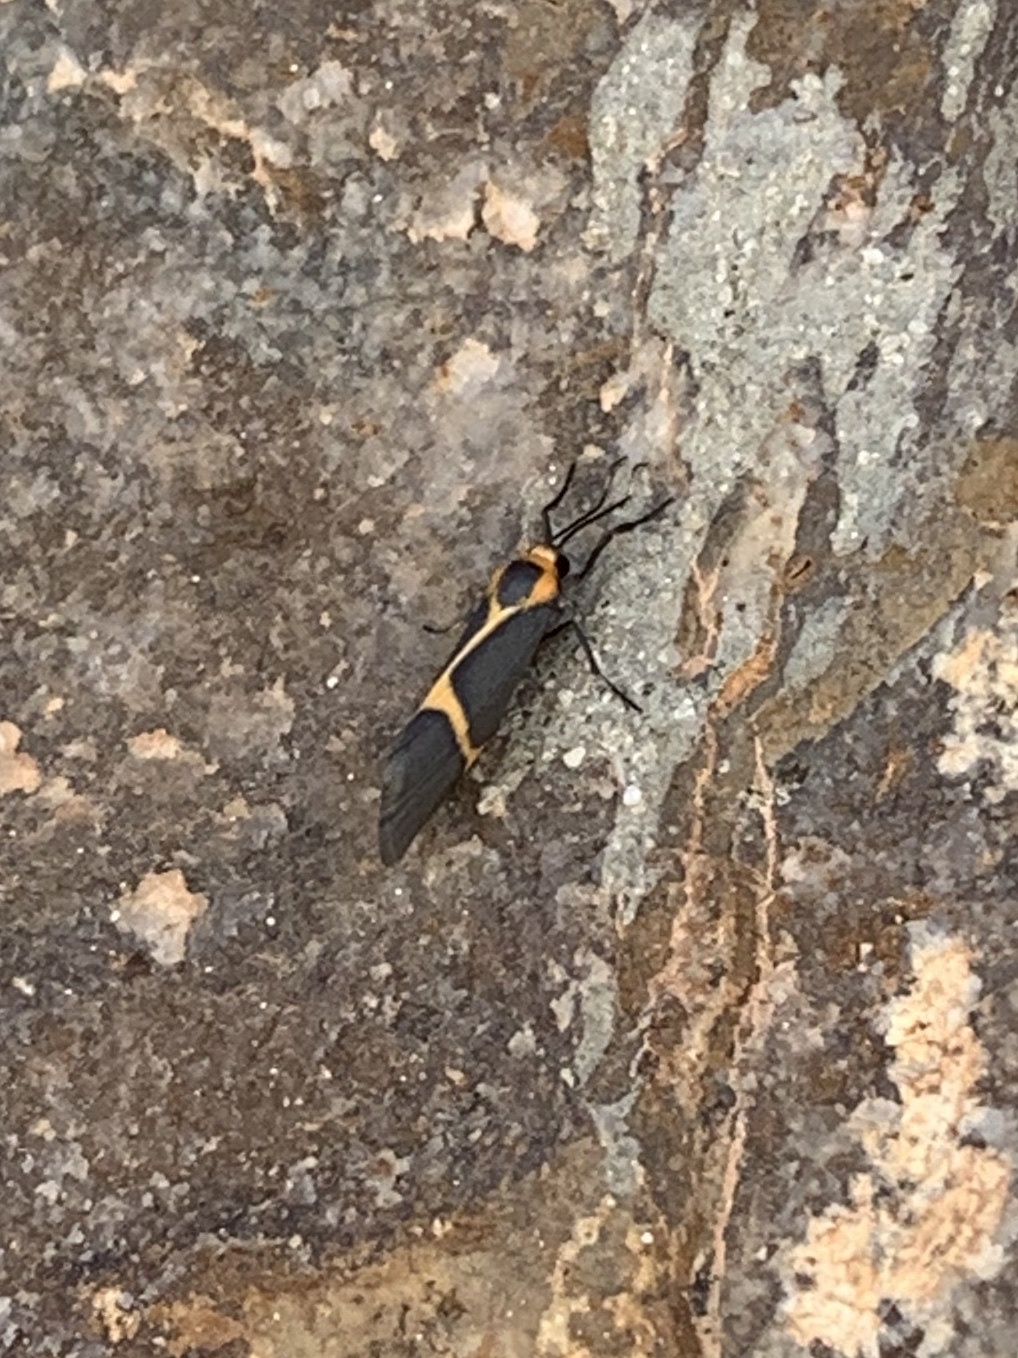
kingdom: Animalia
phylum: Arthropoda
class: Insecta
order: Lepidoptera
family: Erebidae
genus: Cisthene
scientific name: Cisthene barnesii
